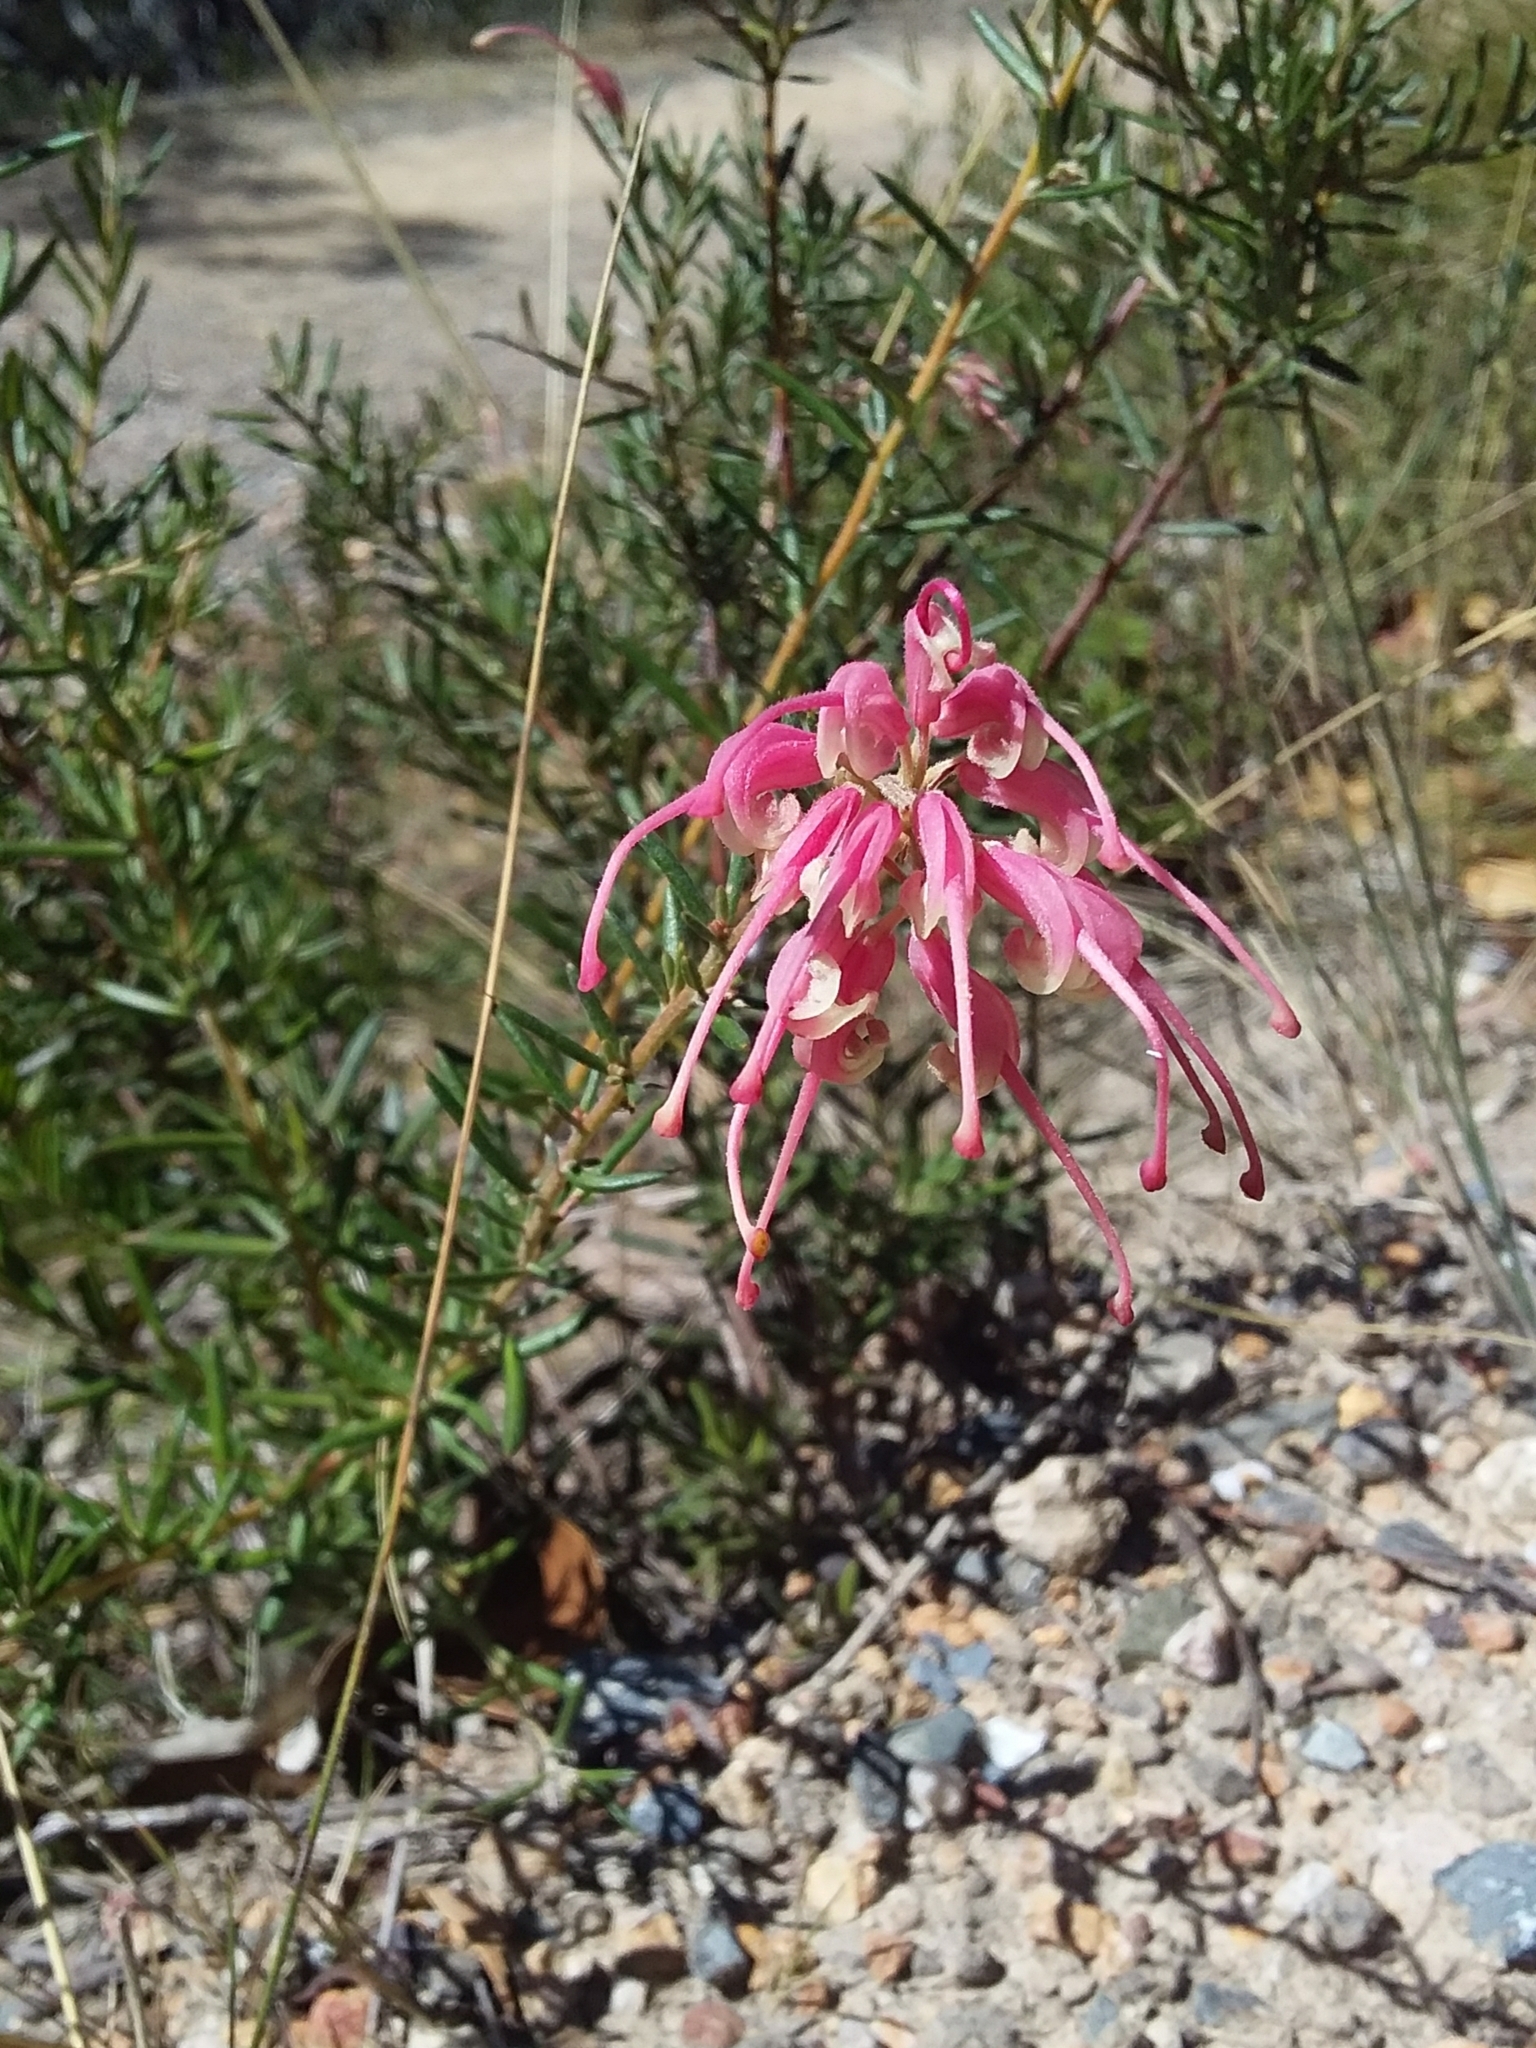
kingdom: Plantae
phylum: Tracheophyta
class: Magnoliopsida
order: Proteales
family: Proteaceae
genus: Grevillea
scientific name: Grevillea lavandulacea
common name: Lavender grevillea
